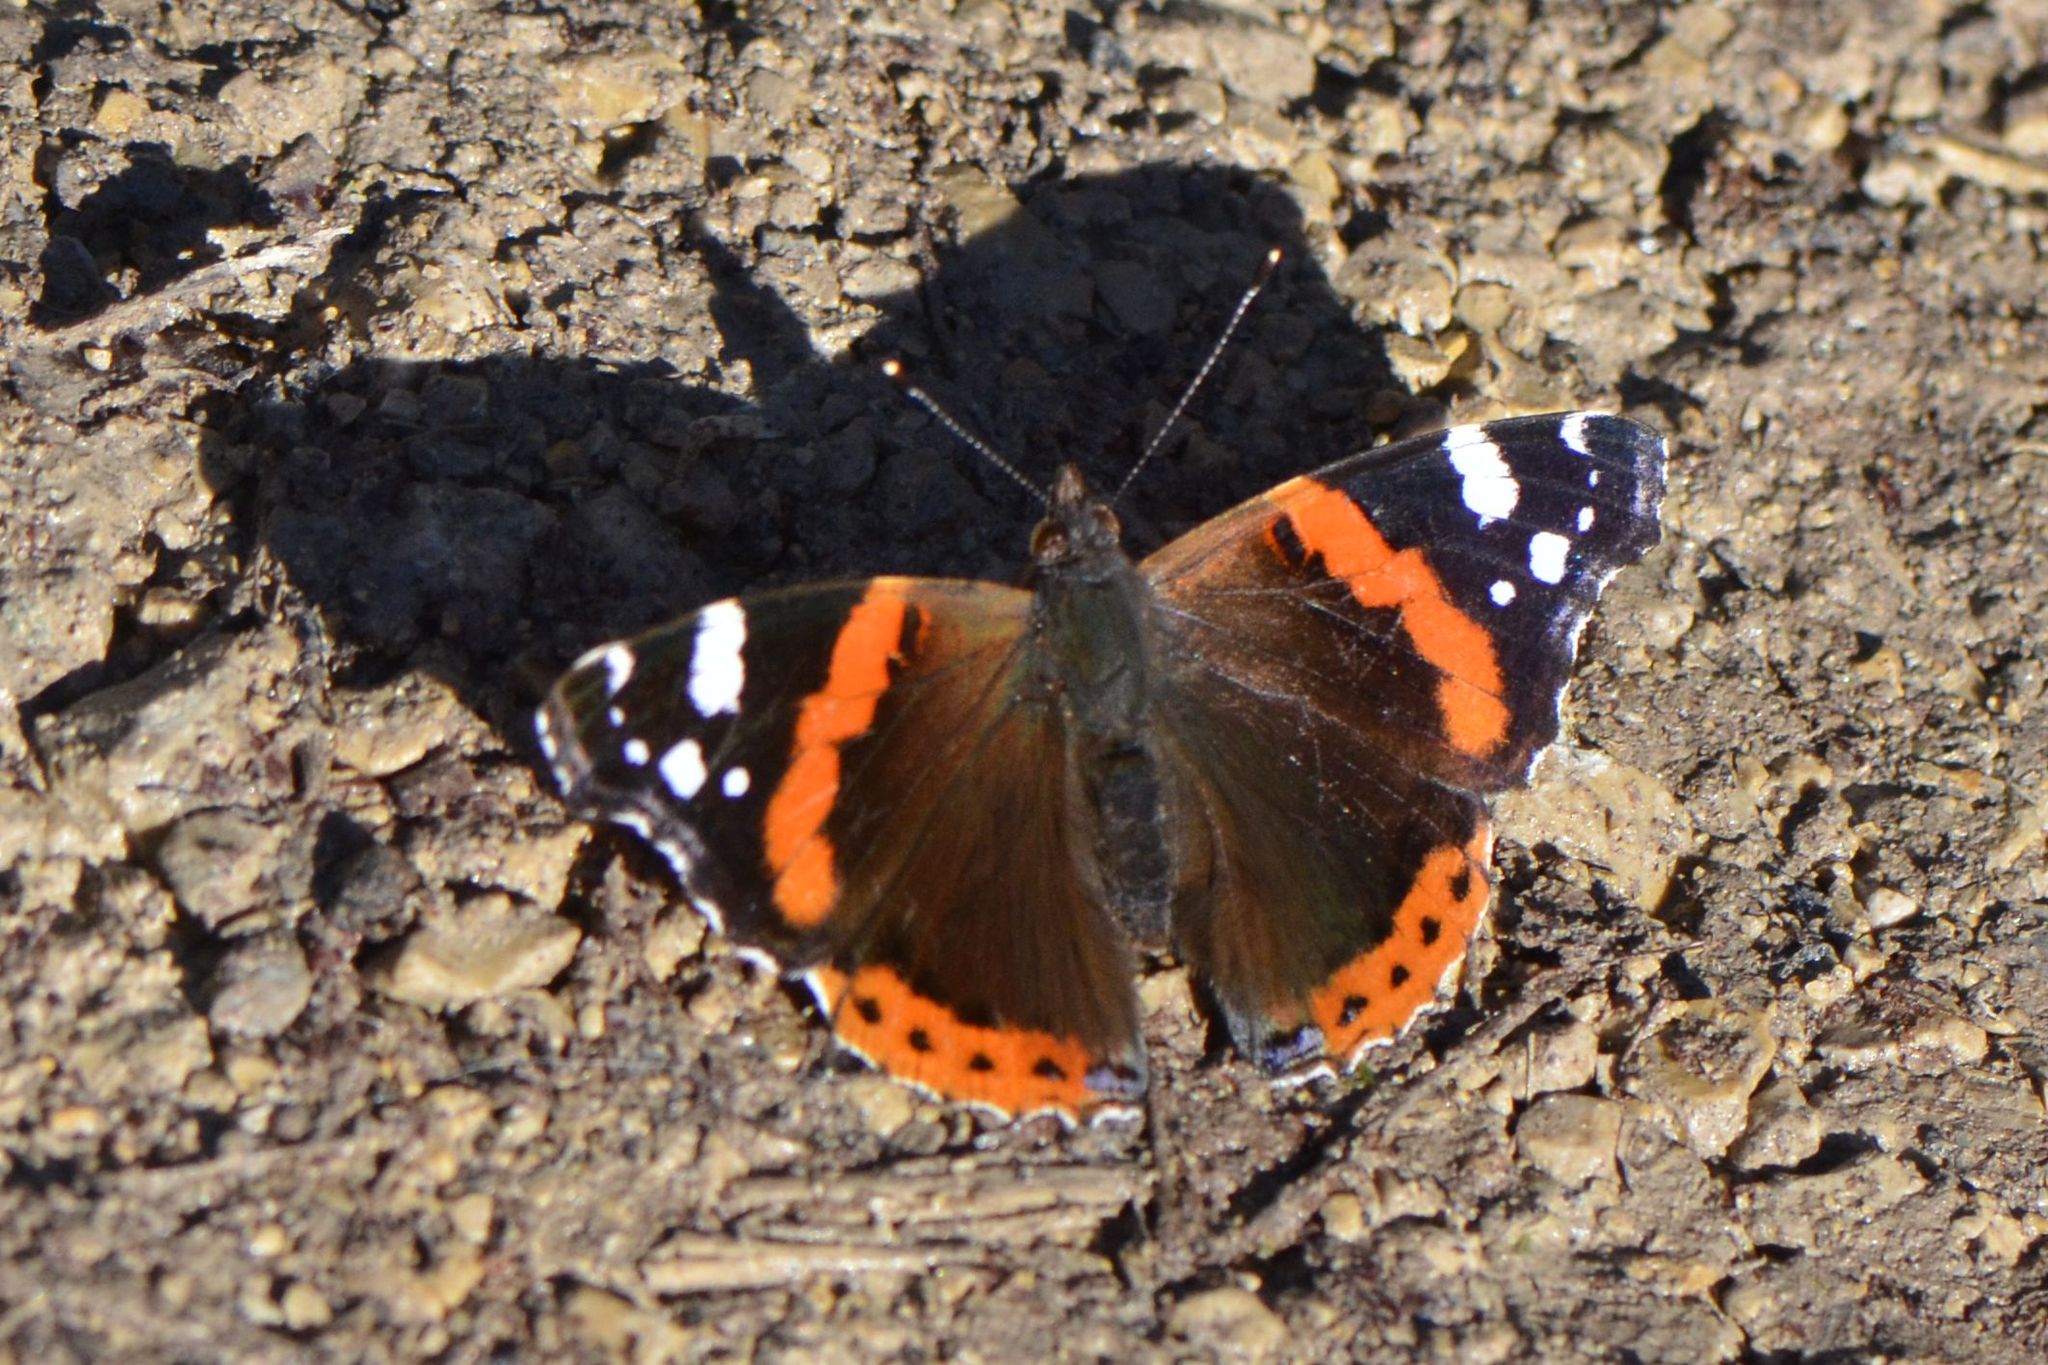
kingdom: Animalia
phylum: Arthropoda
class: Insecta
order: Lepidoptera
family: Nymphalidae
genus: Vanessa
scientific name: Vanessa atalanta
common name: Red admiral
